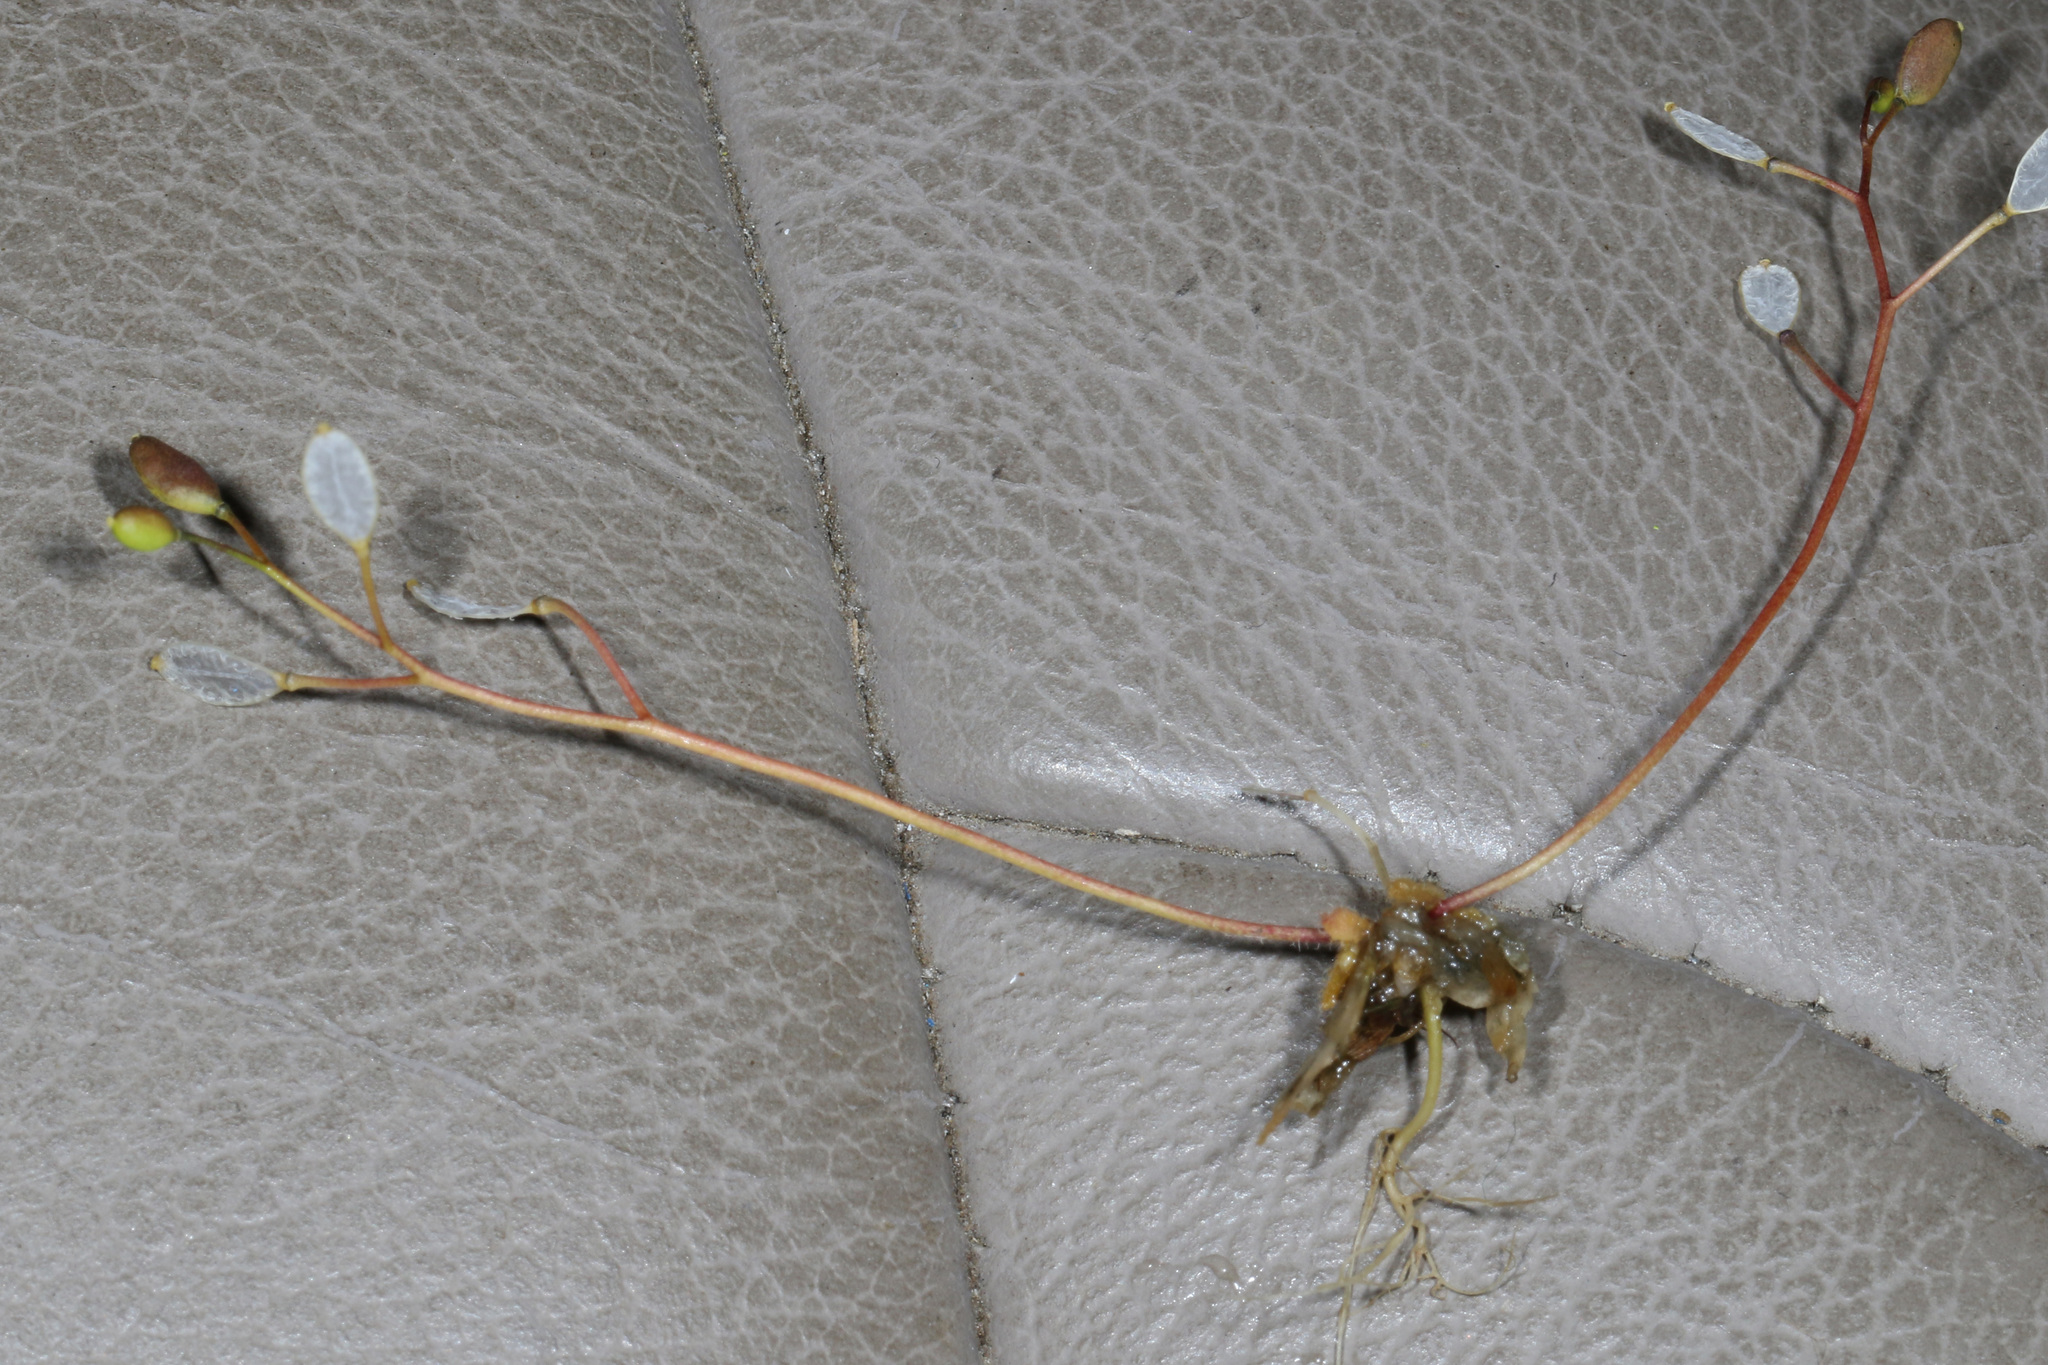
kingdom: Plantae
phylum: Tracheophyta
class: Magnoliopsida
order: Brassicales
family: Brassicaceae
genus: Draba
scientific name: Draba verna
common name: Spring draba
